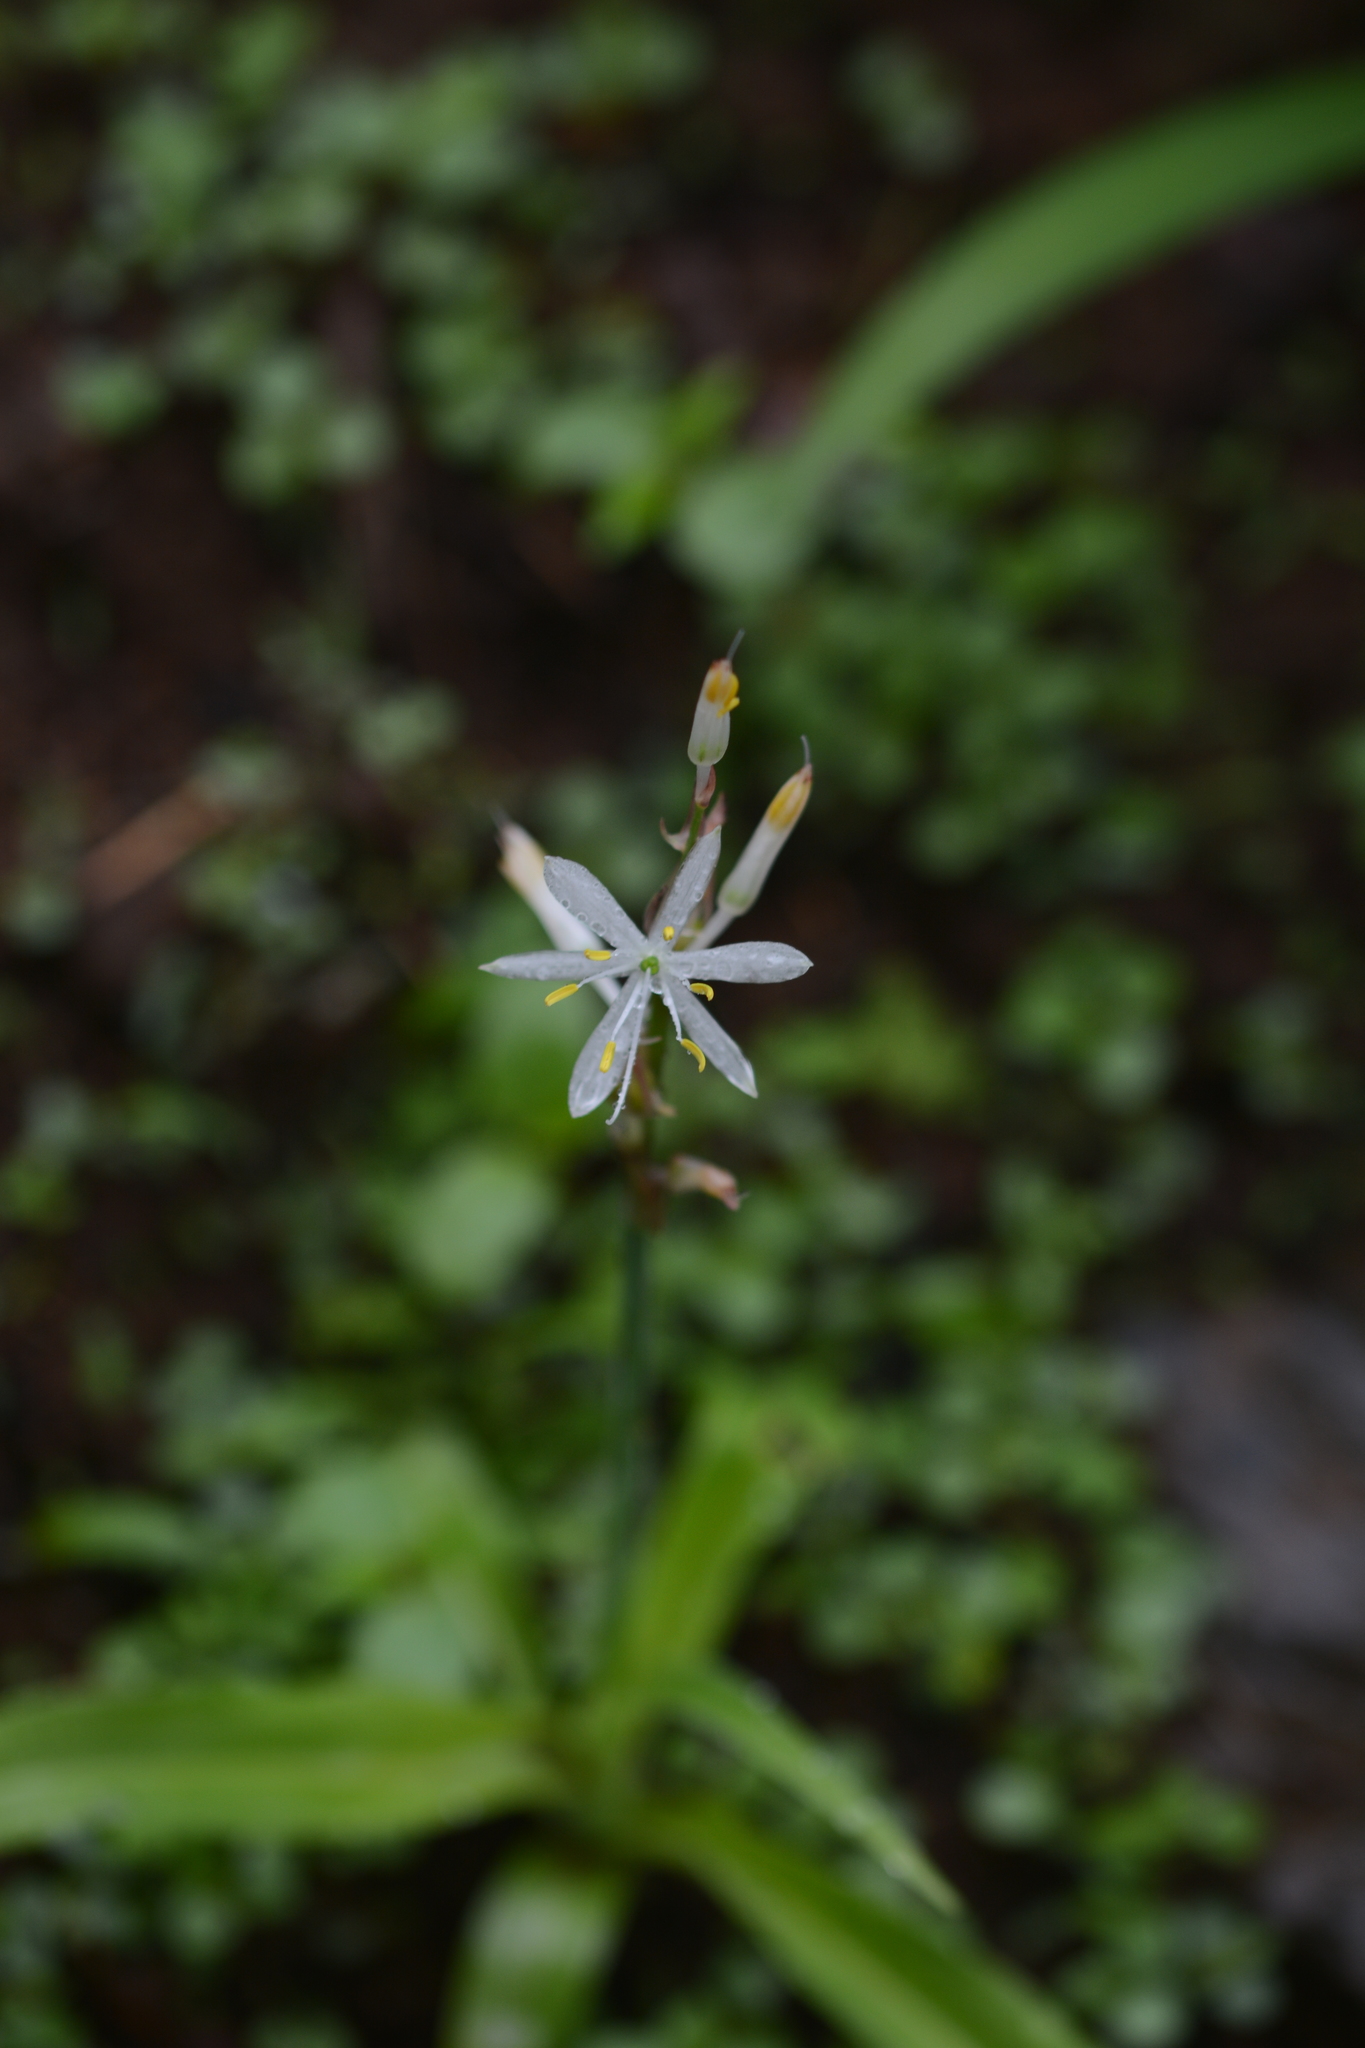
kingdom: Plantae
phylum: Tracheophyta
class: Liliopsida
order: Asparagales
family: Asparagaceae
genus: Chlorophytum
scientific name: Chlorophytum borivilianum
